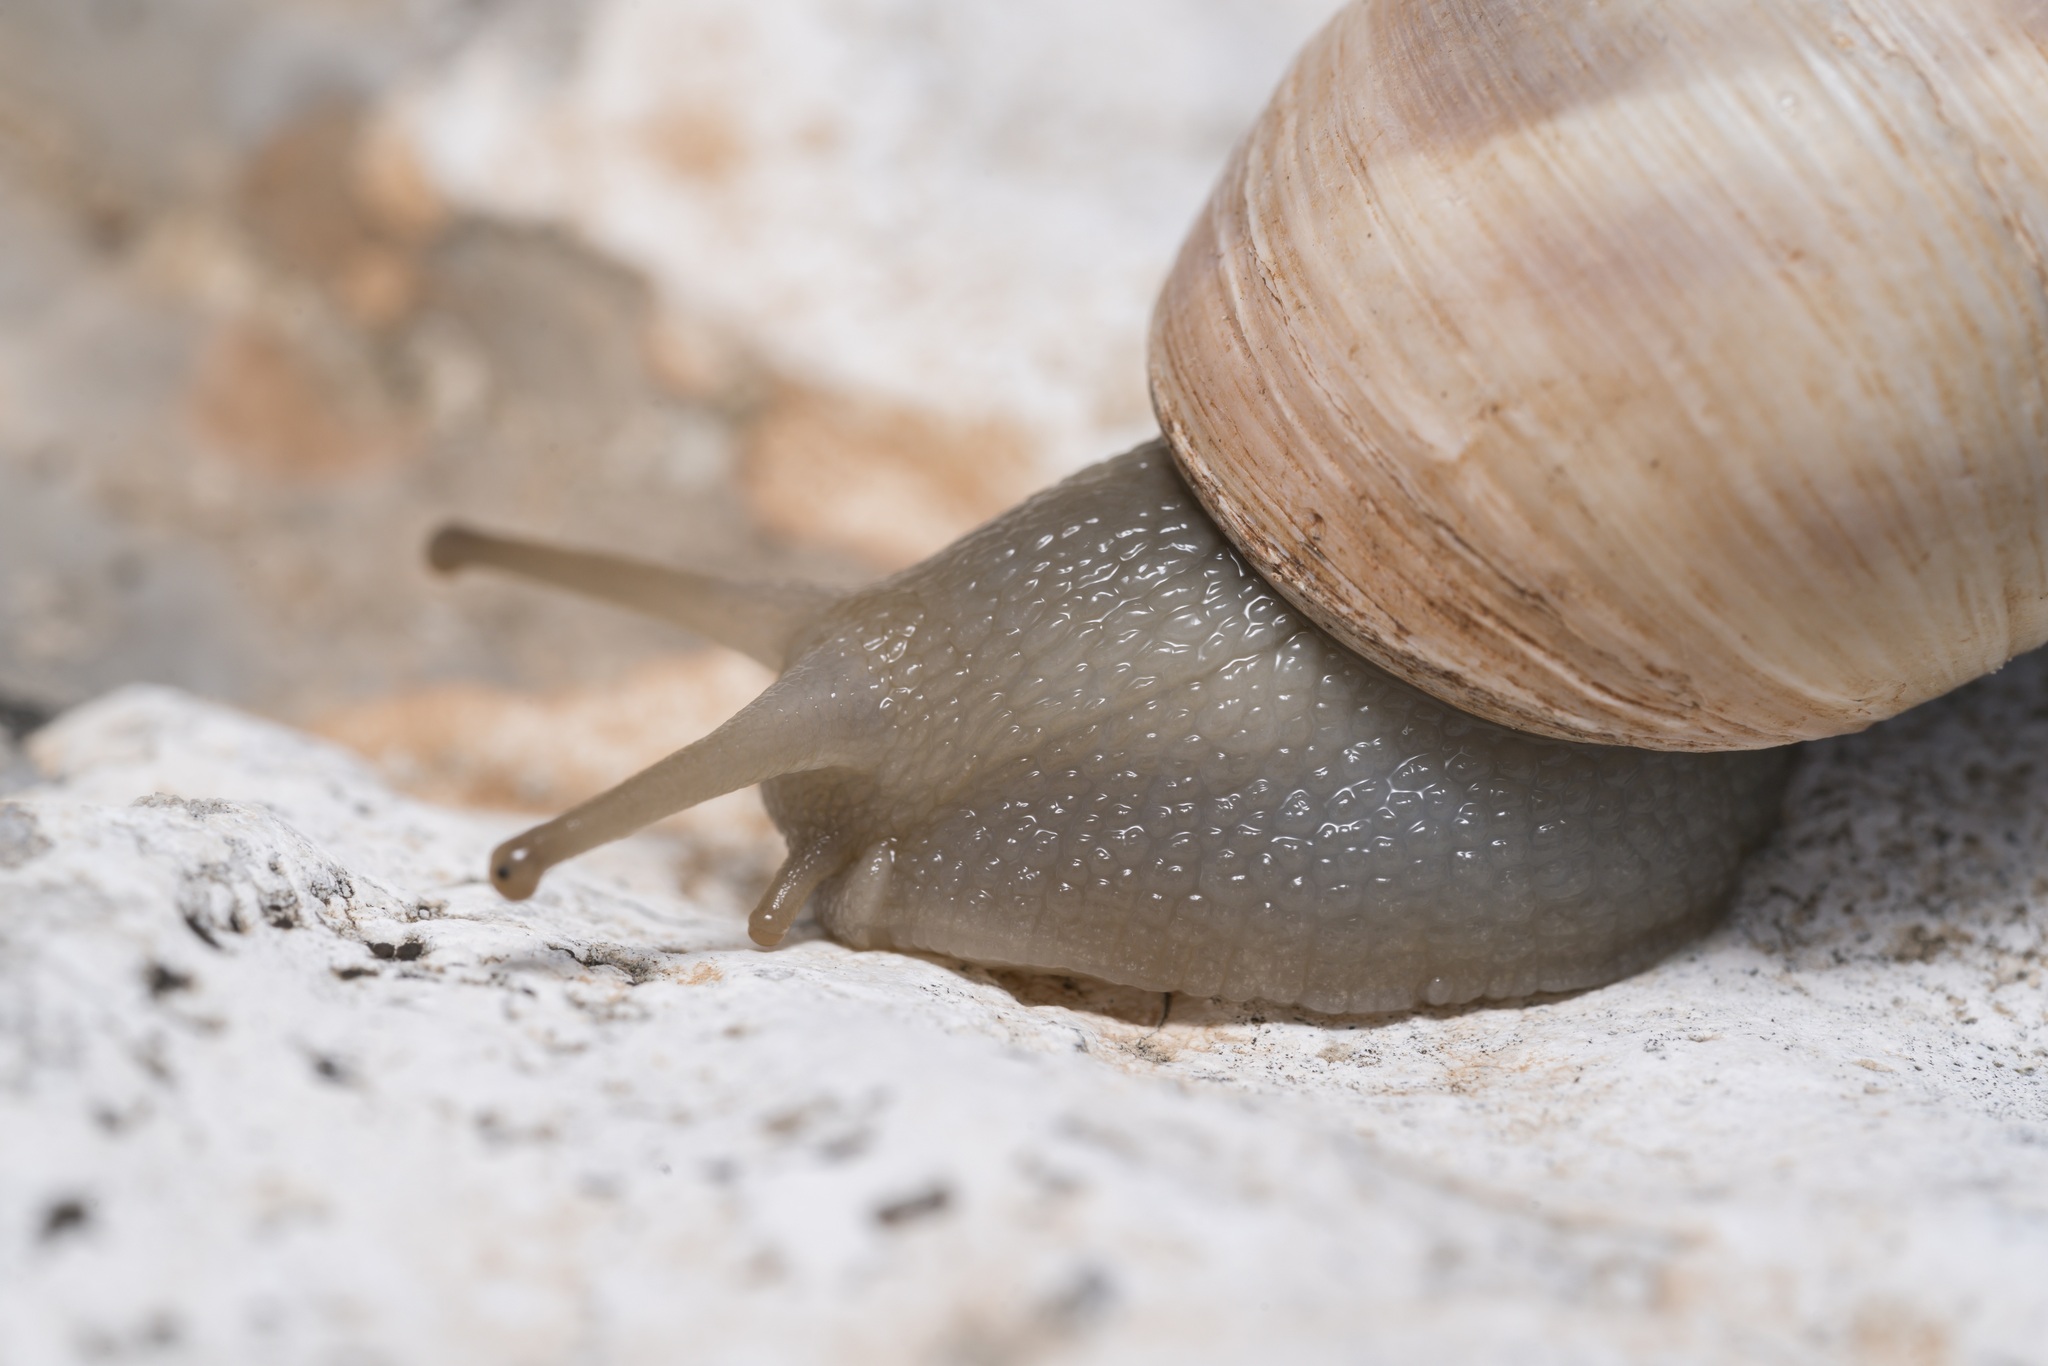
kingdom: Animalia
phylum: Mollusca
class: Gastropoda
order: Stylommatophora
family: Helicidae
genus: Helix
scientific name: Helix fathallae
